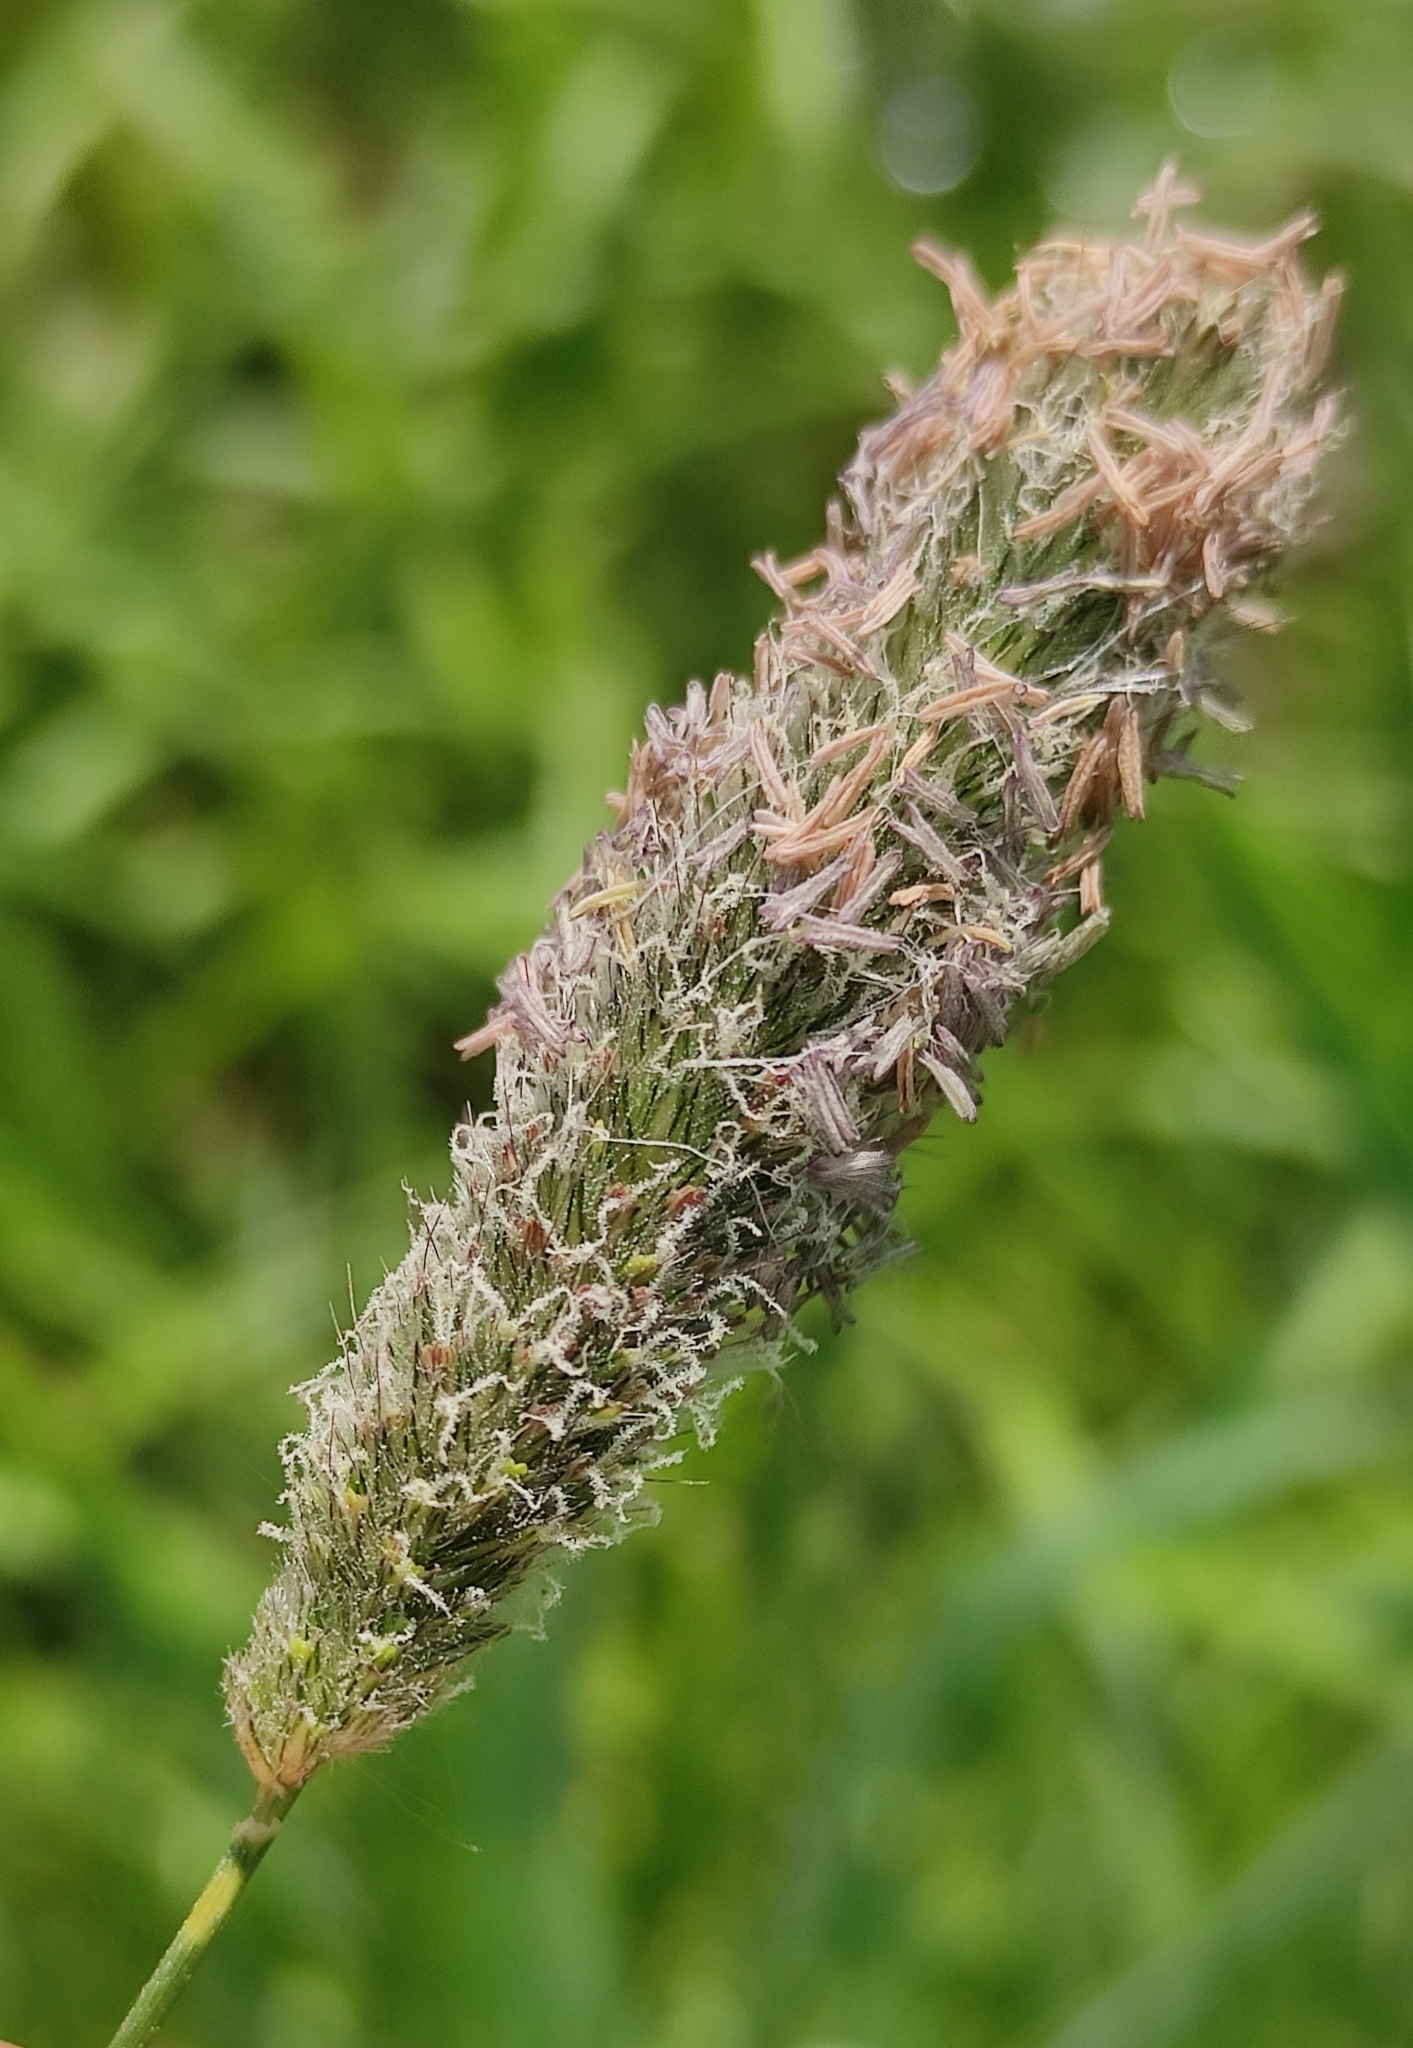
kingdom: Plantae
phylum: Tracheophyta
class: Liliopsida
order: Poales
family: Poaceae
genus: Alopecurus
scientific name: Alopecurus pratensis
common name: Meadow foxtail
